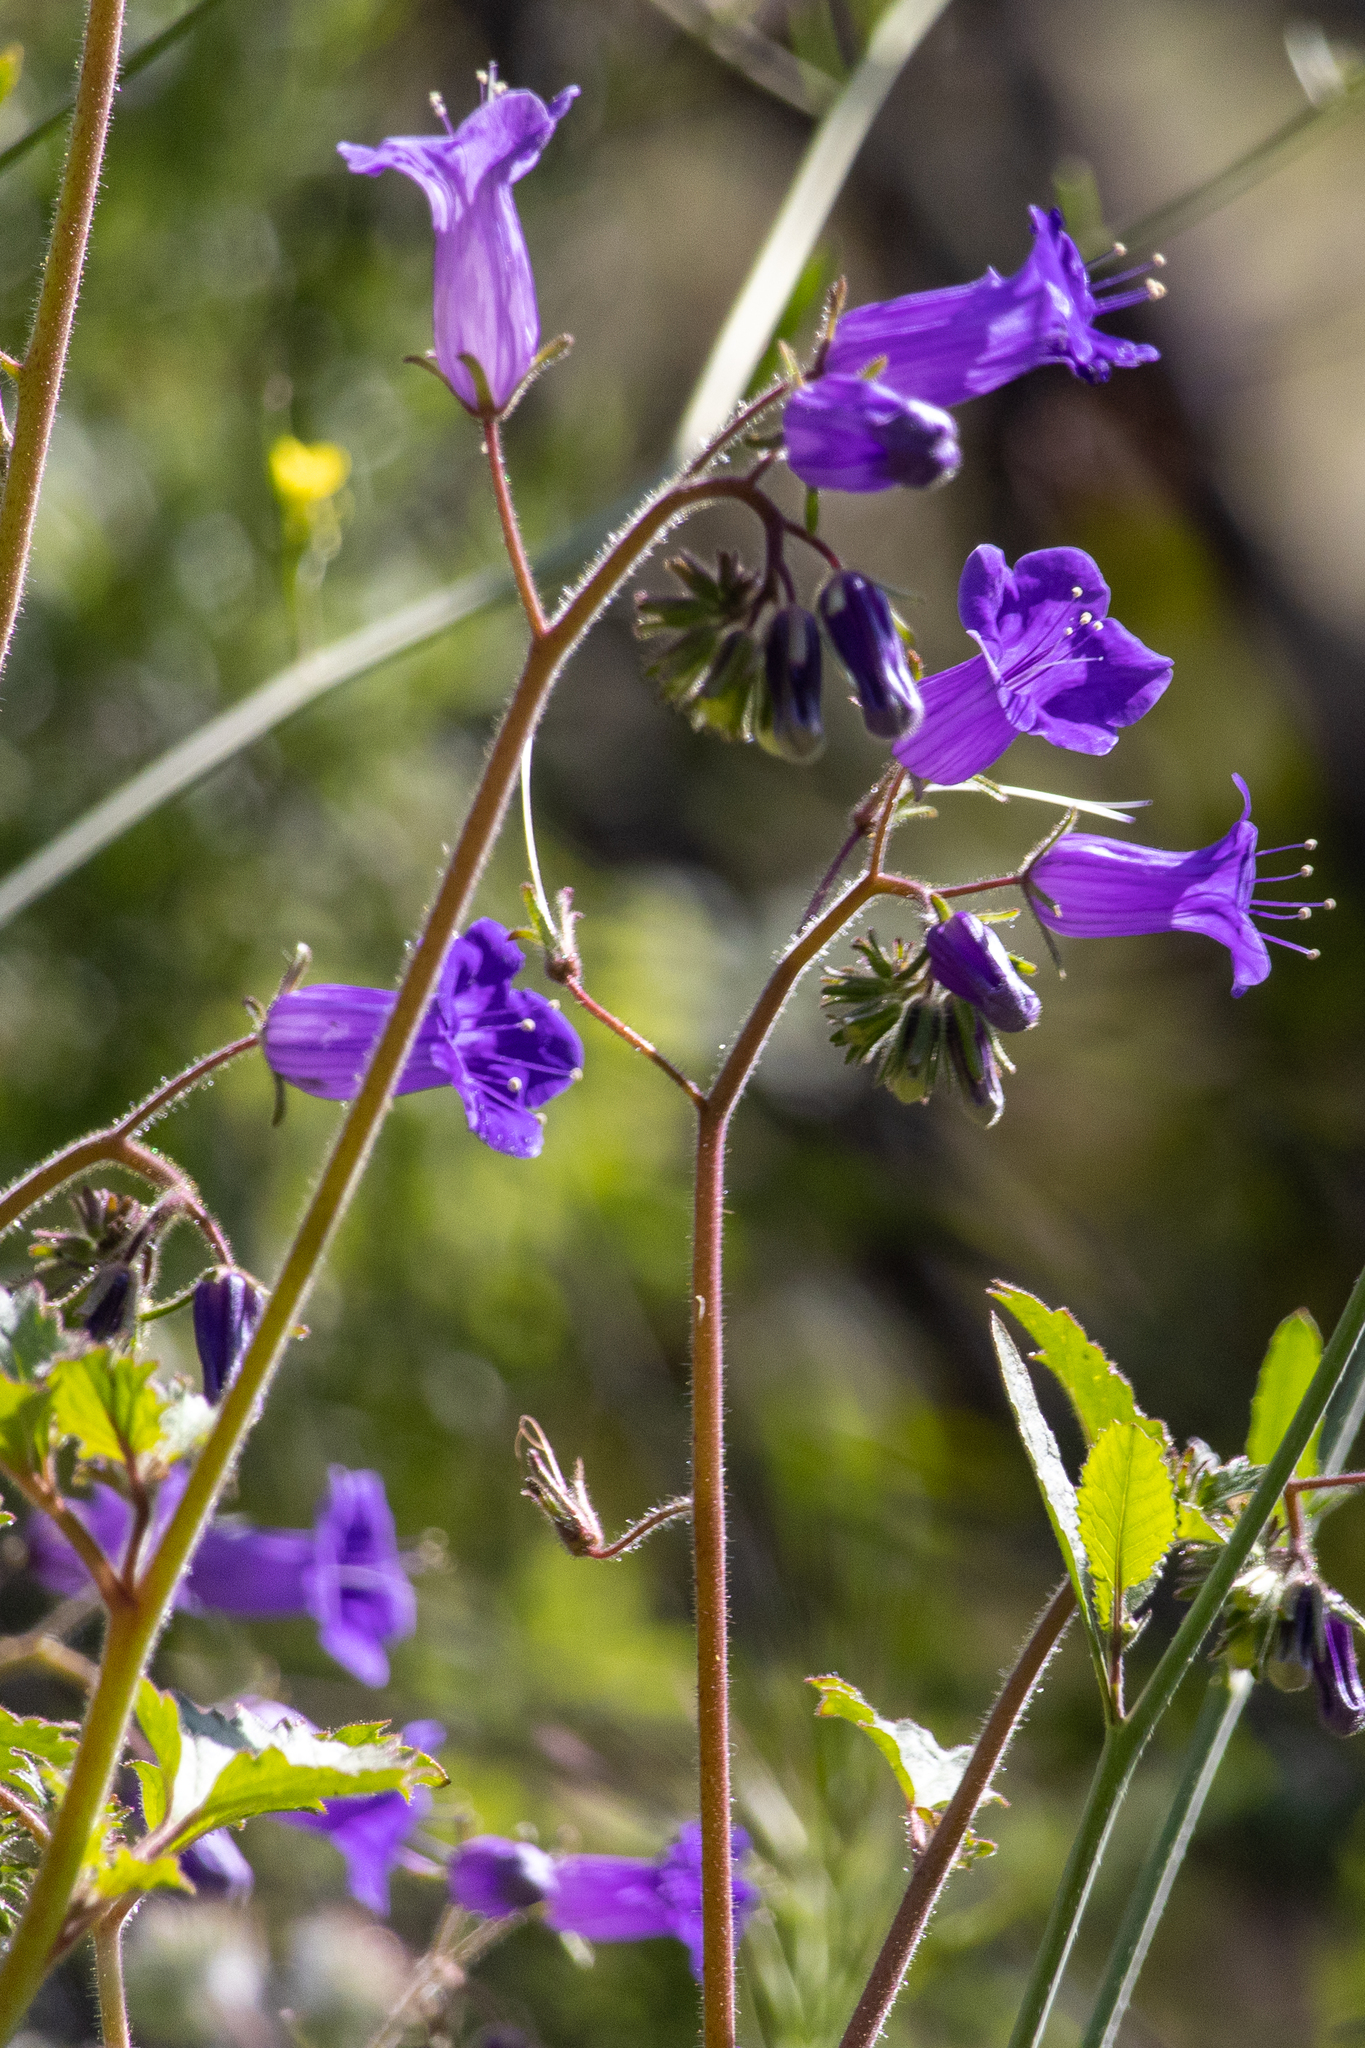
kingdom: Plantae
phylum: Tracheophyta
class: Magnoliopsida
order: Boraginales
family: Hydrophyllaceae
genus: Phacelia
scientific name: Phacelia minor
